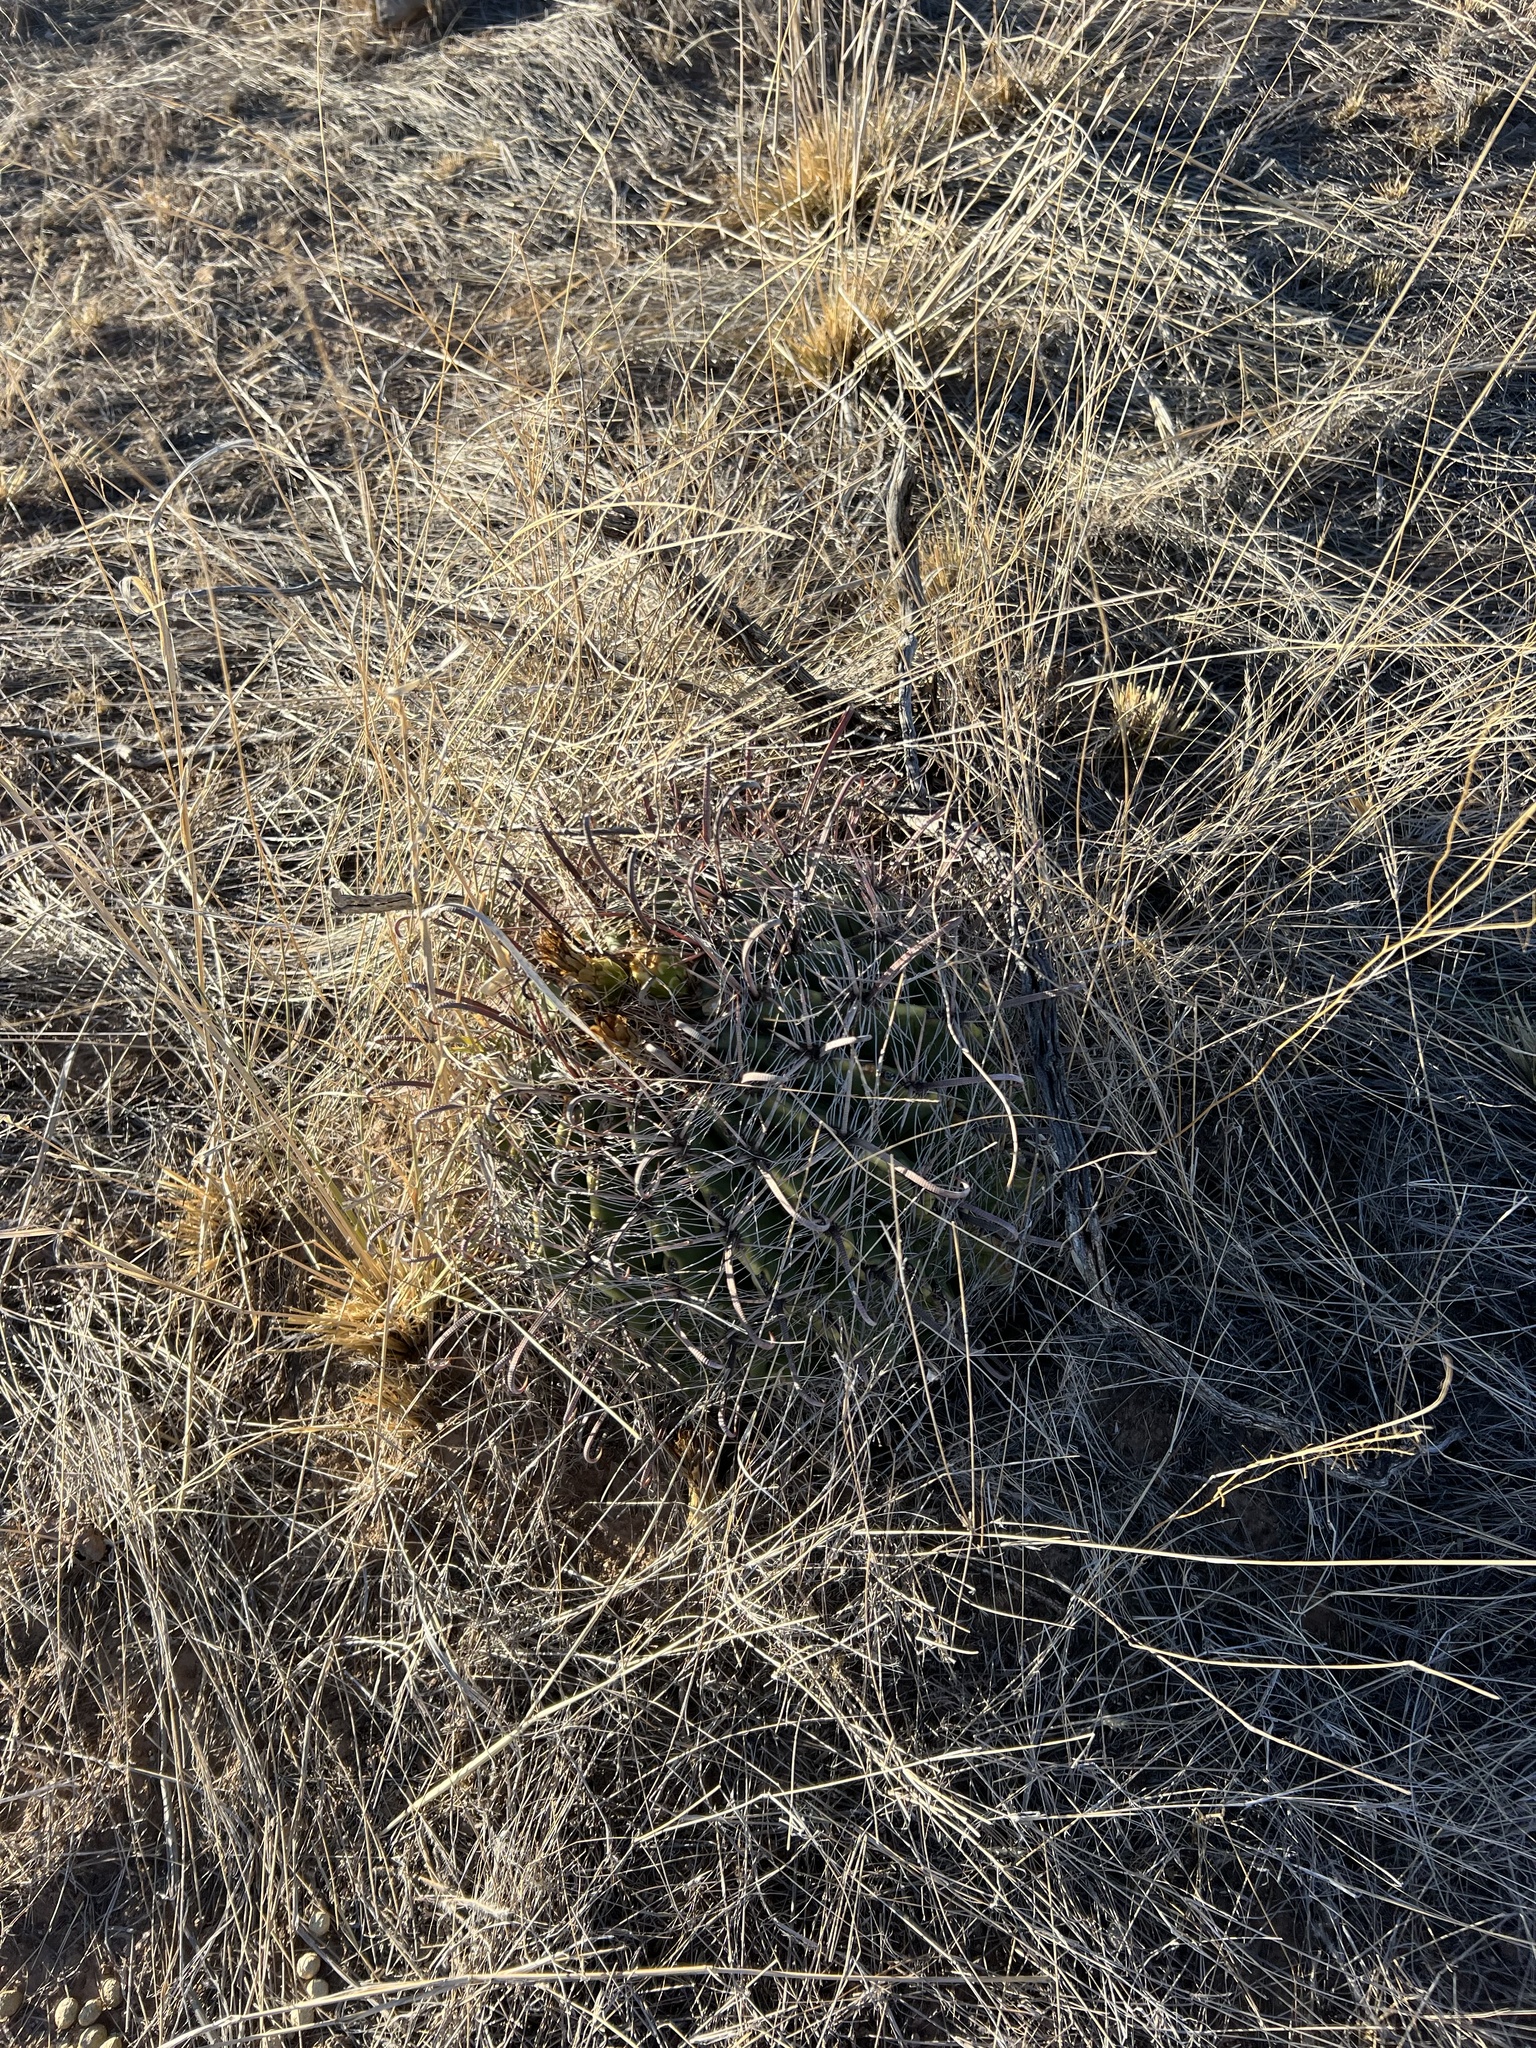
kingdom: Plantae
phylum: Tracheophyta
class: Magnoliopsida
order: Caryophyllales
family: Cactaceae
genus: Ferocactus
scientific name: Ferocactus wislizeni
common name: Candy barrel cactus
